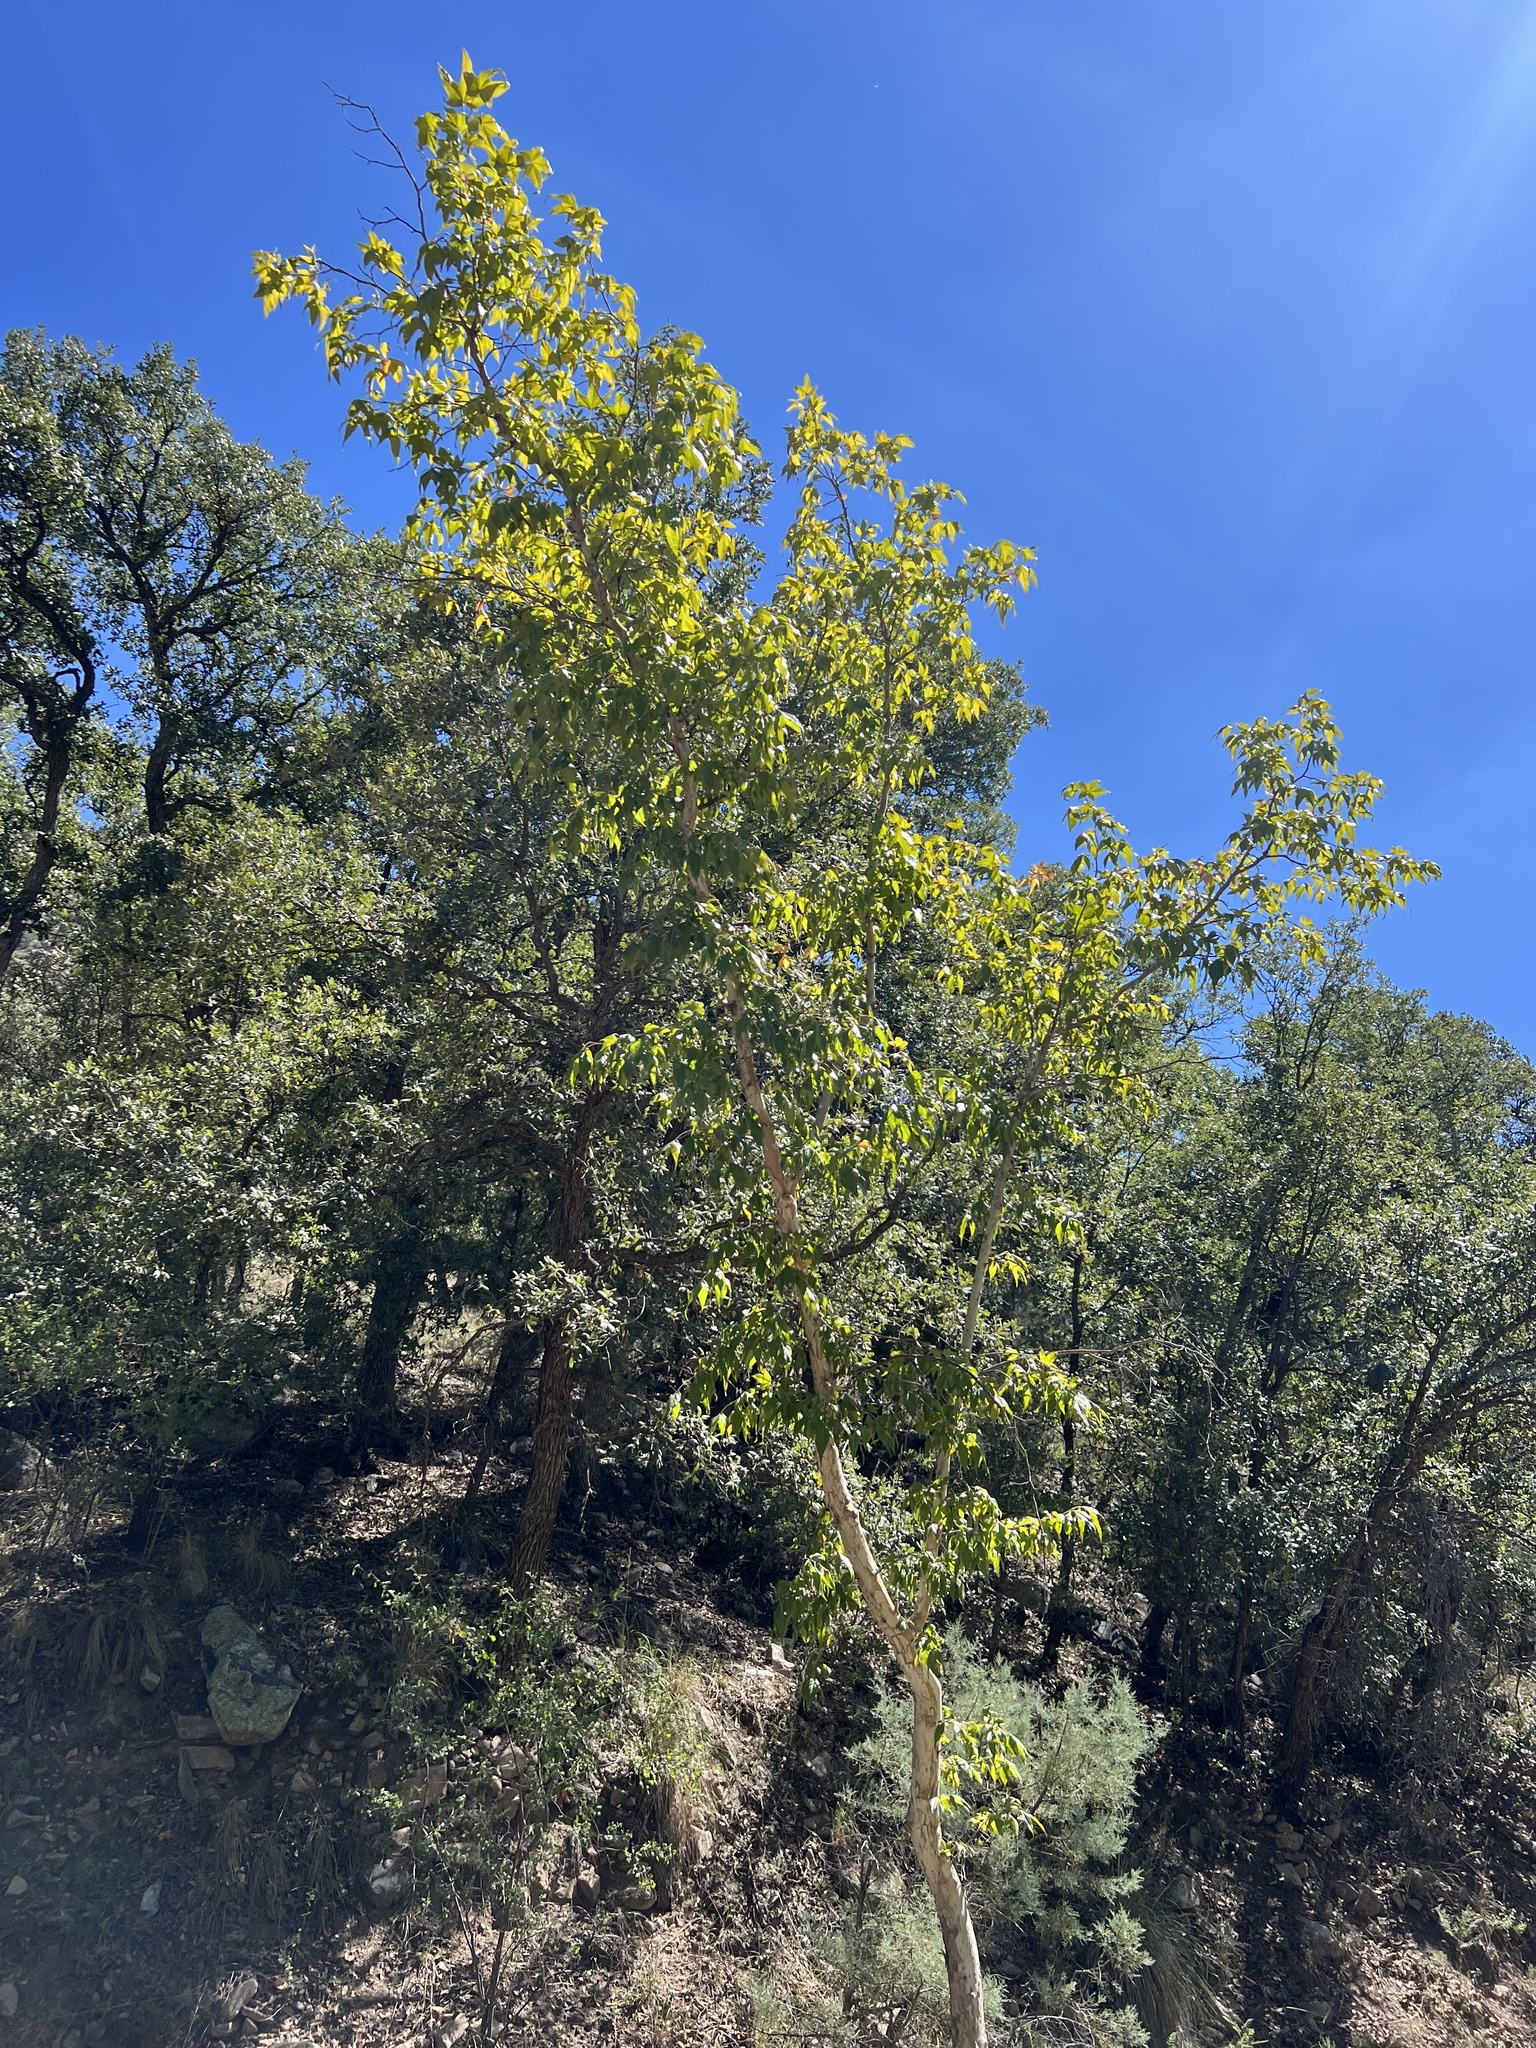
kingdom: Plantae
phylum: Tracheophyta
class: Magnoliopsida
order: Proteales
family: Platanaceae
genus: Platanus
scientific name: Platanus wrightii
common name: Arizona sycamore
